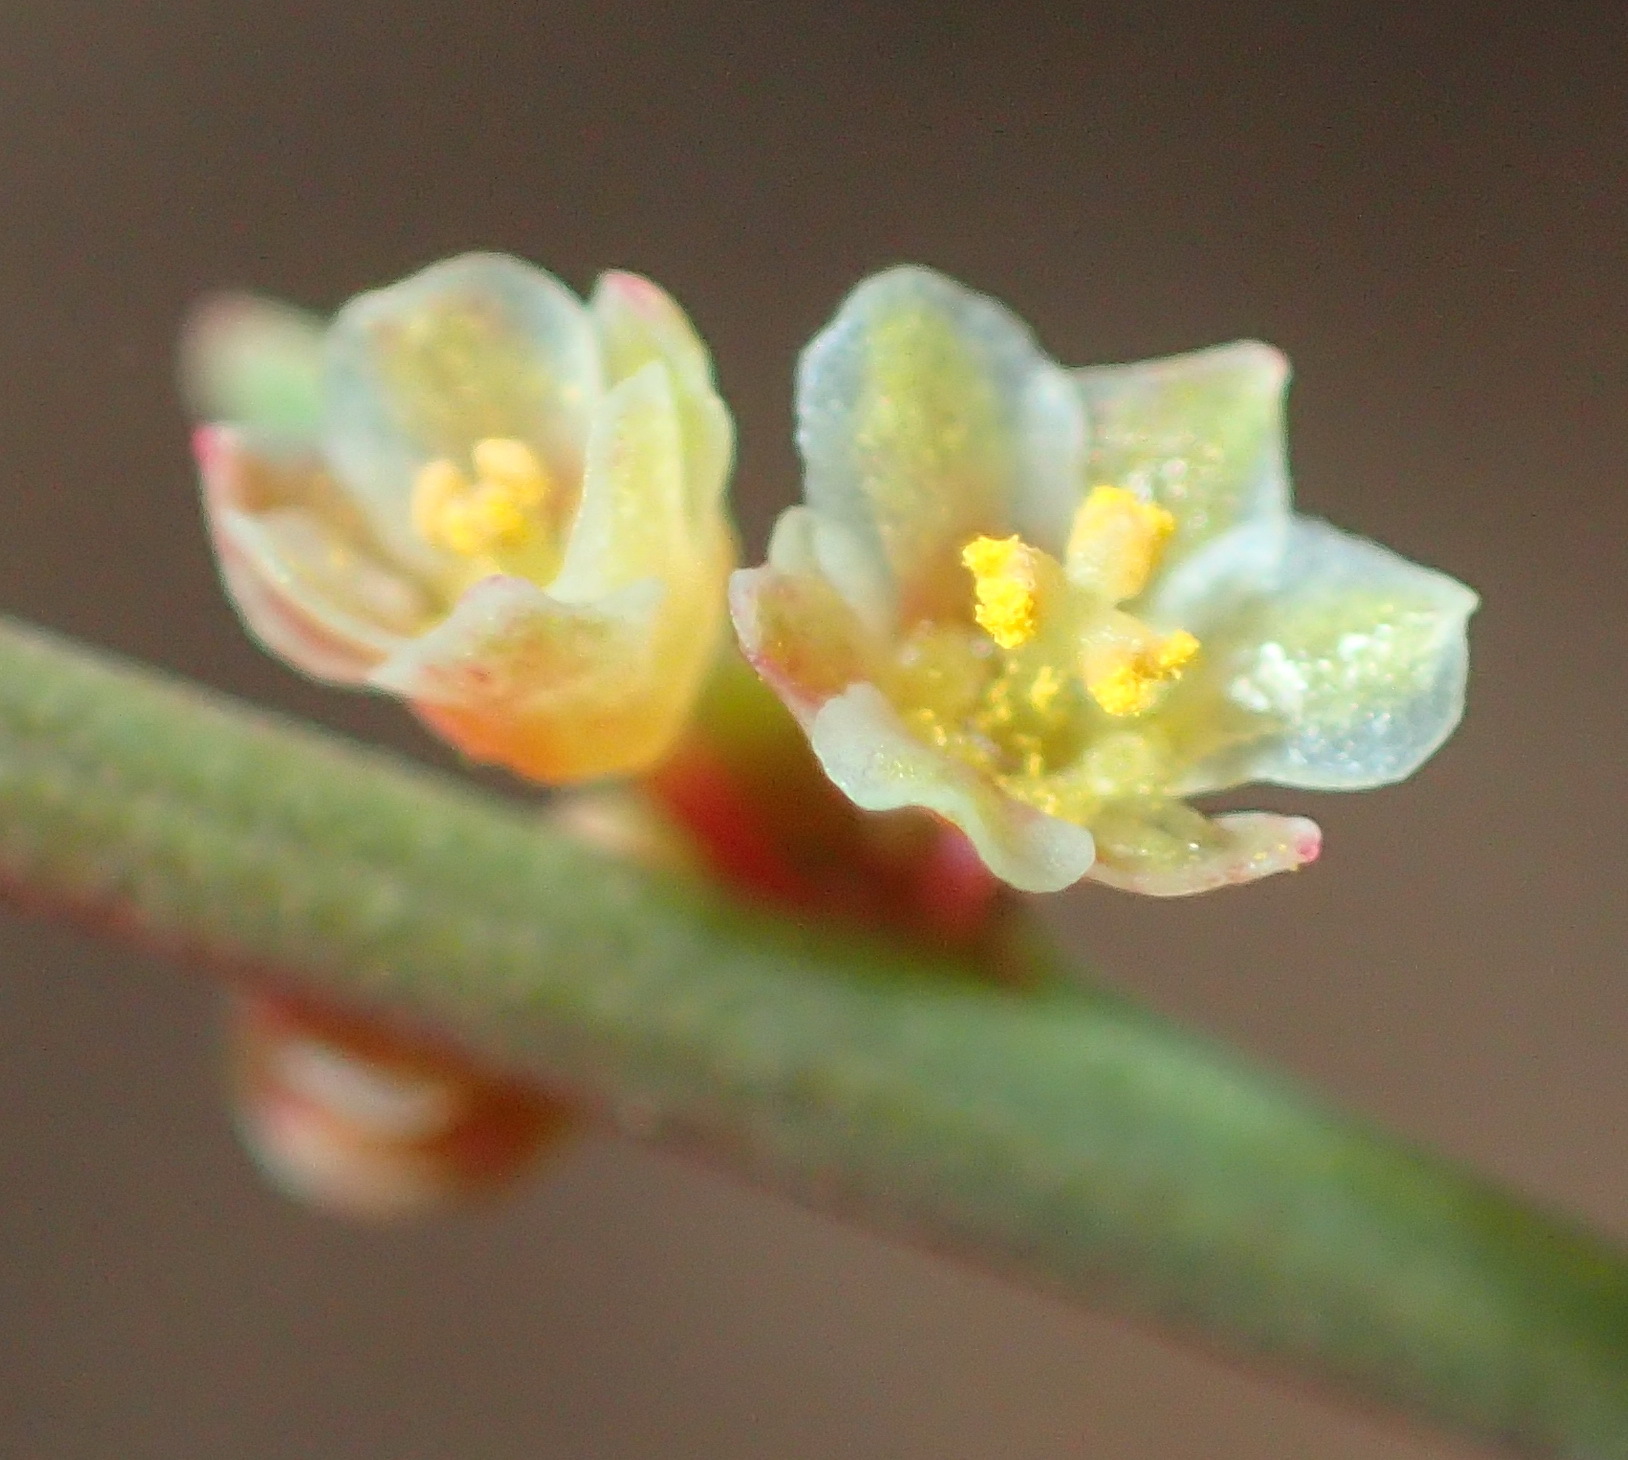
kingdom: Plantae
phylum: Tracheophyta
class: Magnoliopsida
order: Malpighiales
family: Peraceae
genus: Clutia
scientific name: Clutia ericoides
